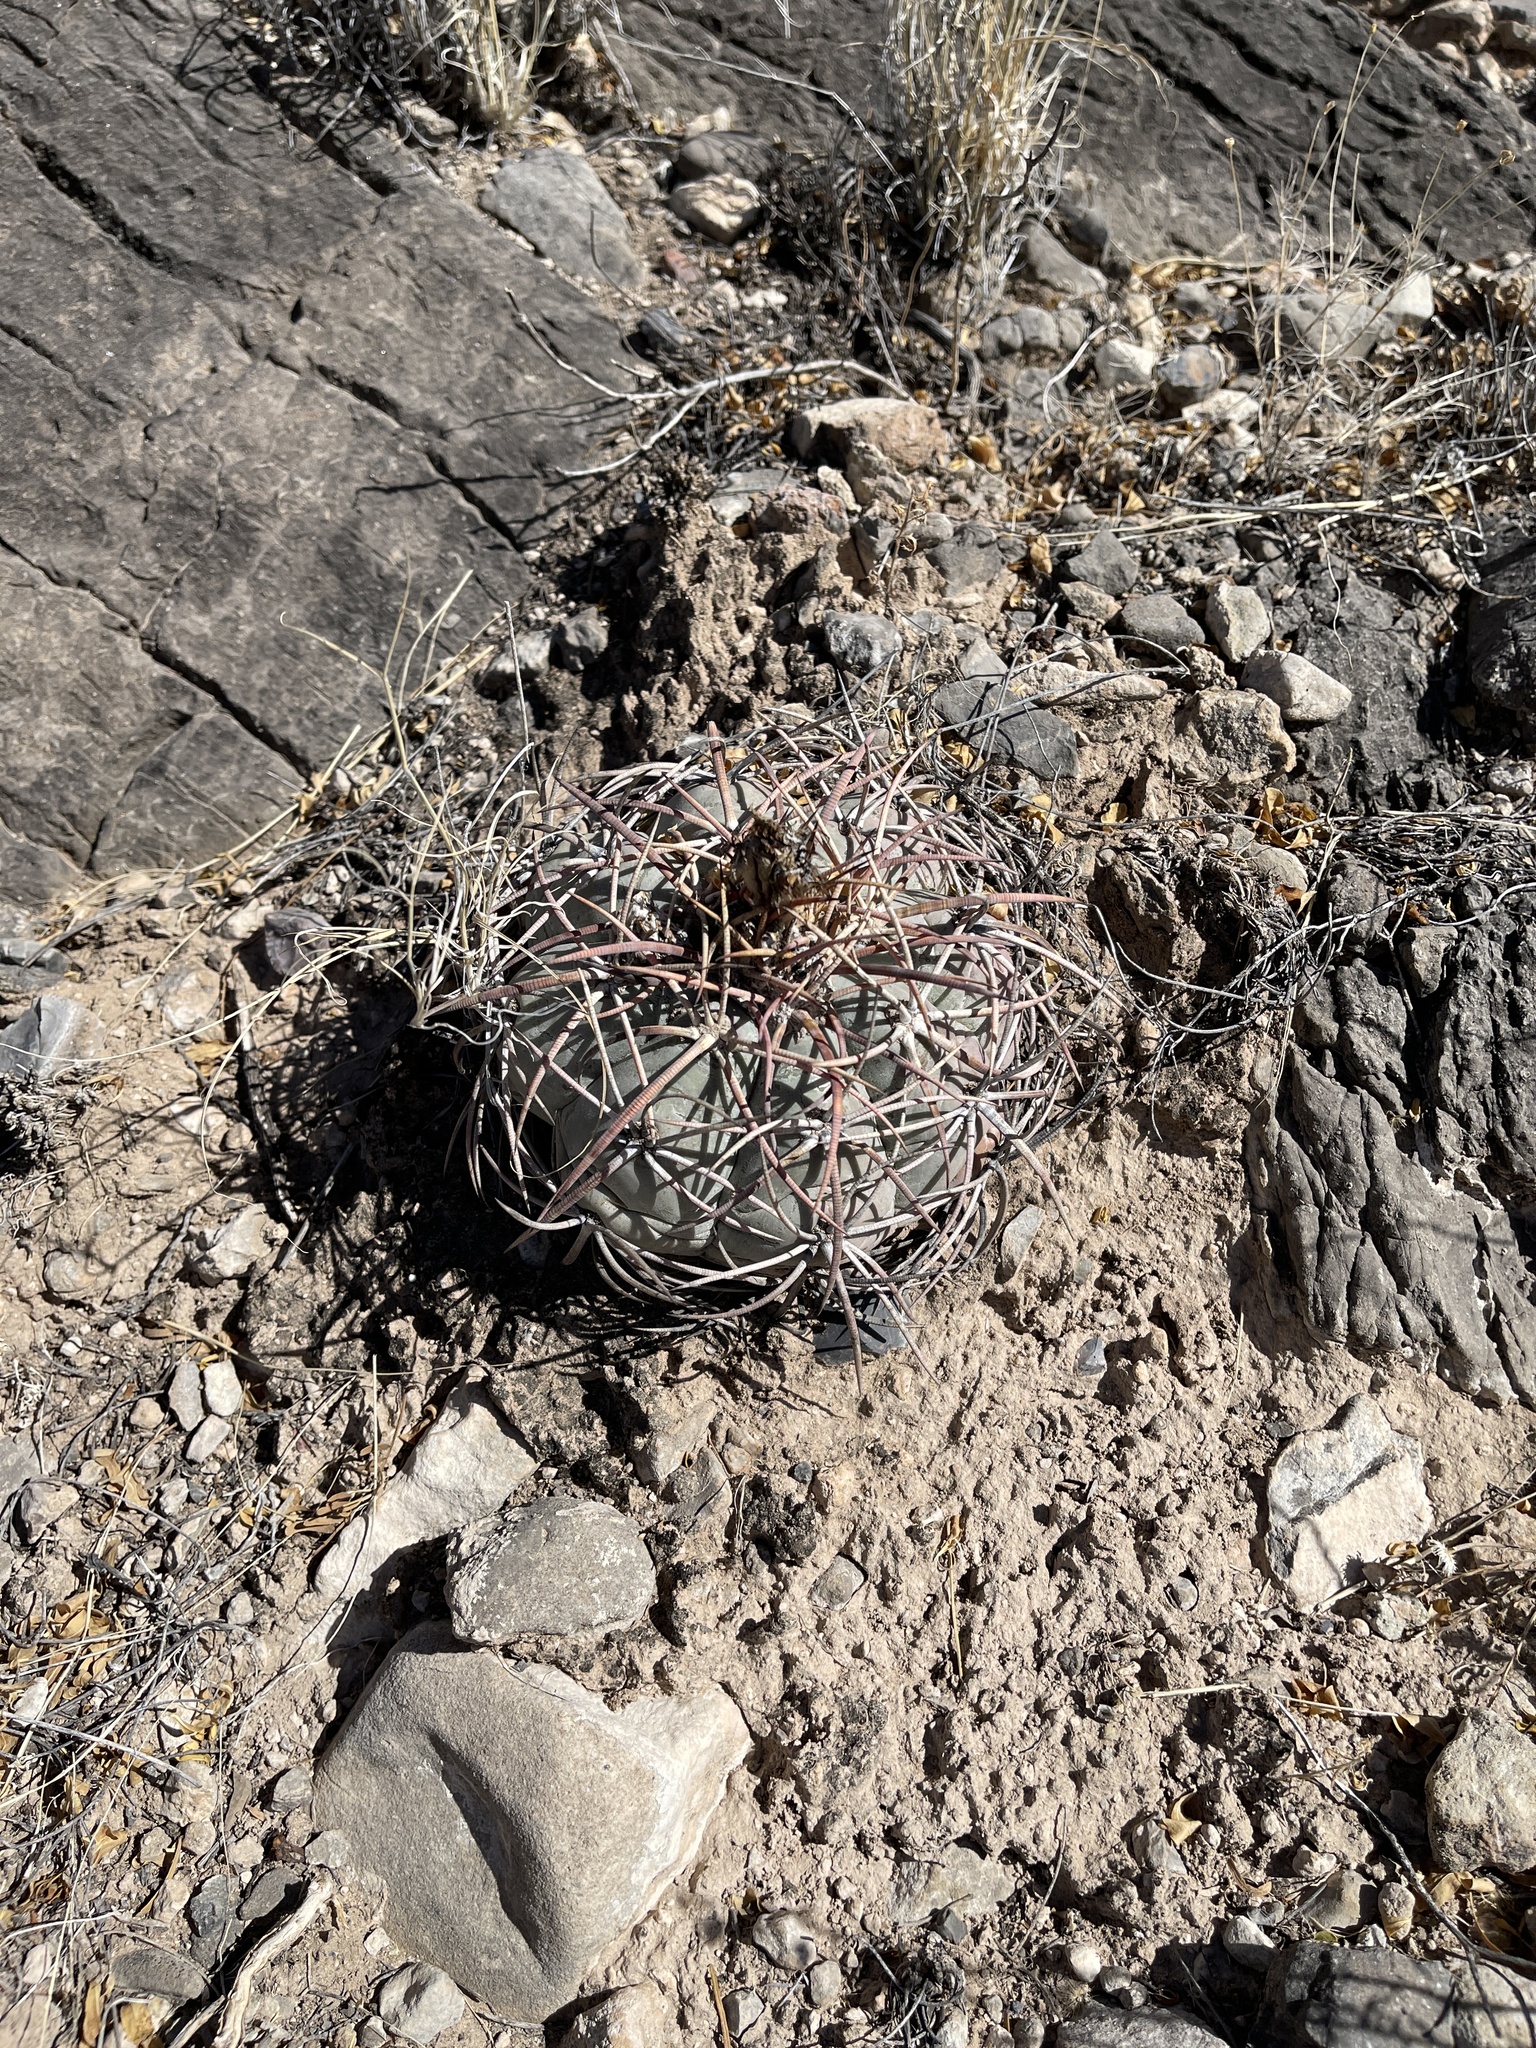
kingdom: Plantae
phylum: Tracheophyta
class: Magnoliopsida
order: Caryophyllales
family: Cactaceae
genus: Echinocactus
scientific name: Echinocactus horizonthalonius
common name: Devilshead
